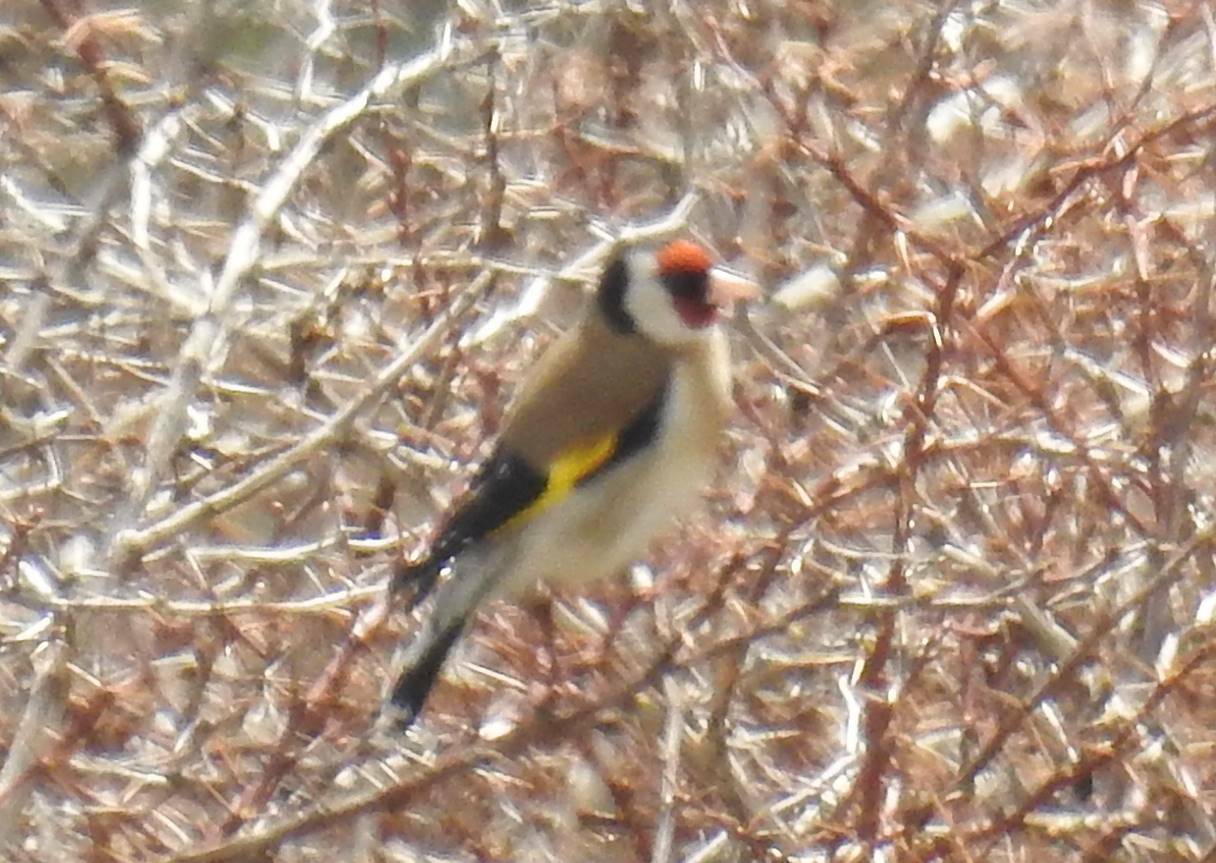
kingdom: Animalia
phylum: Chordata
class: Aves
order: Passeriformes
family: Fringillidae
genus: Carduelis
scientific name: Carduelis carduelis
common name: European goldfinch
